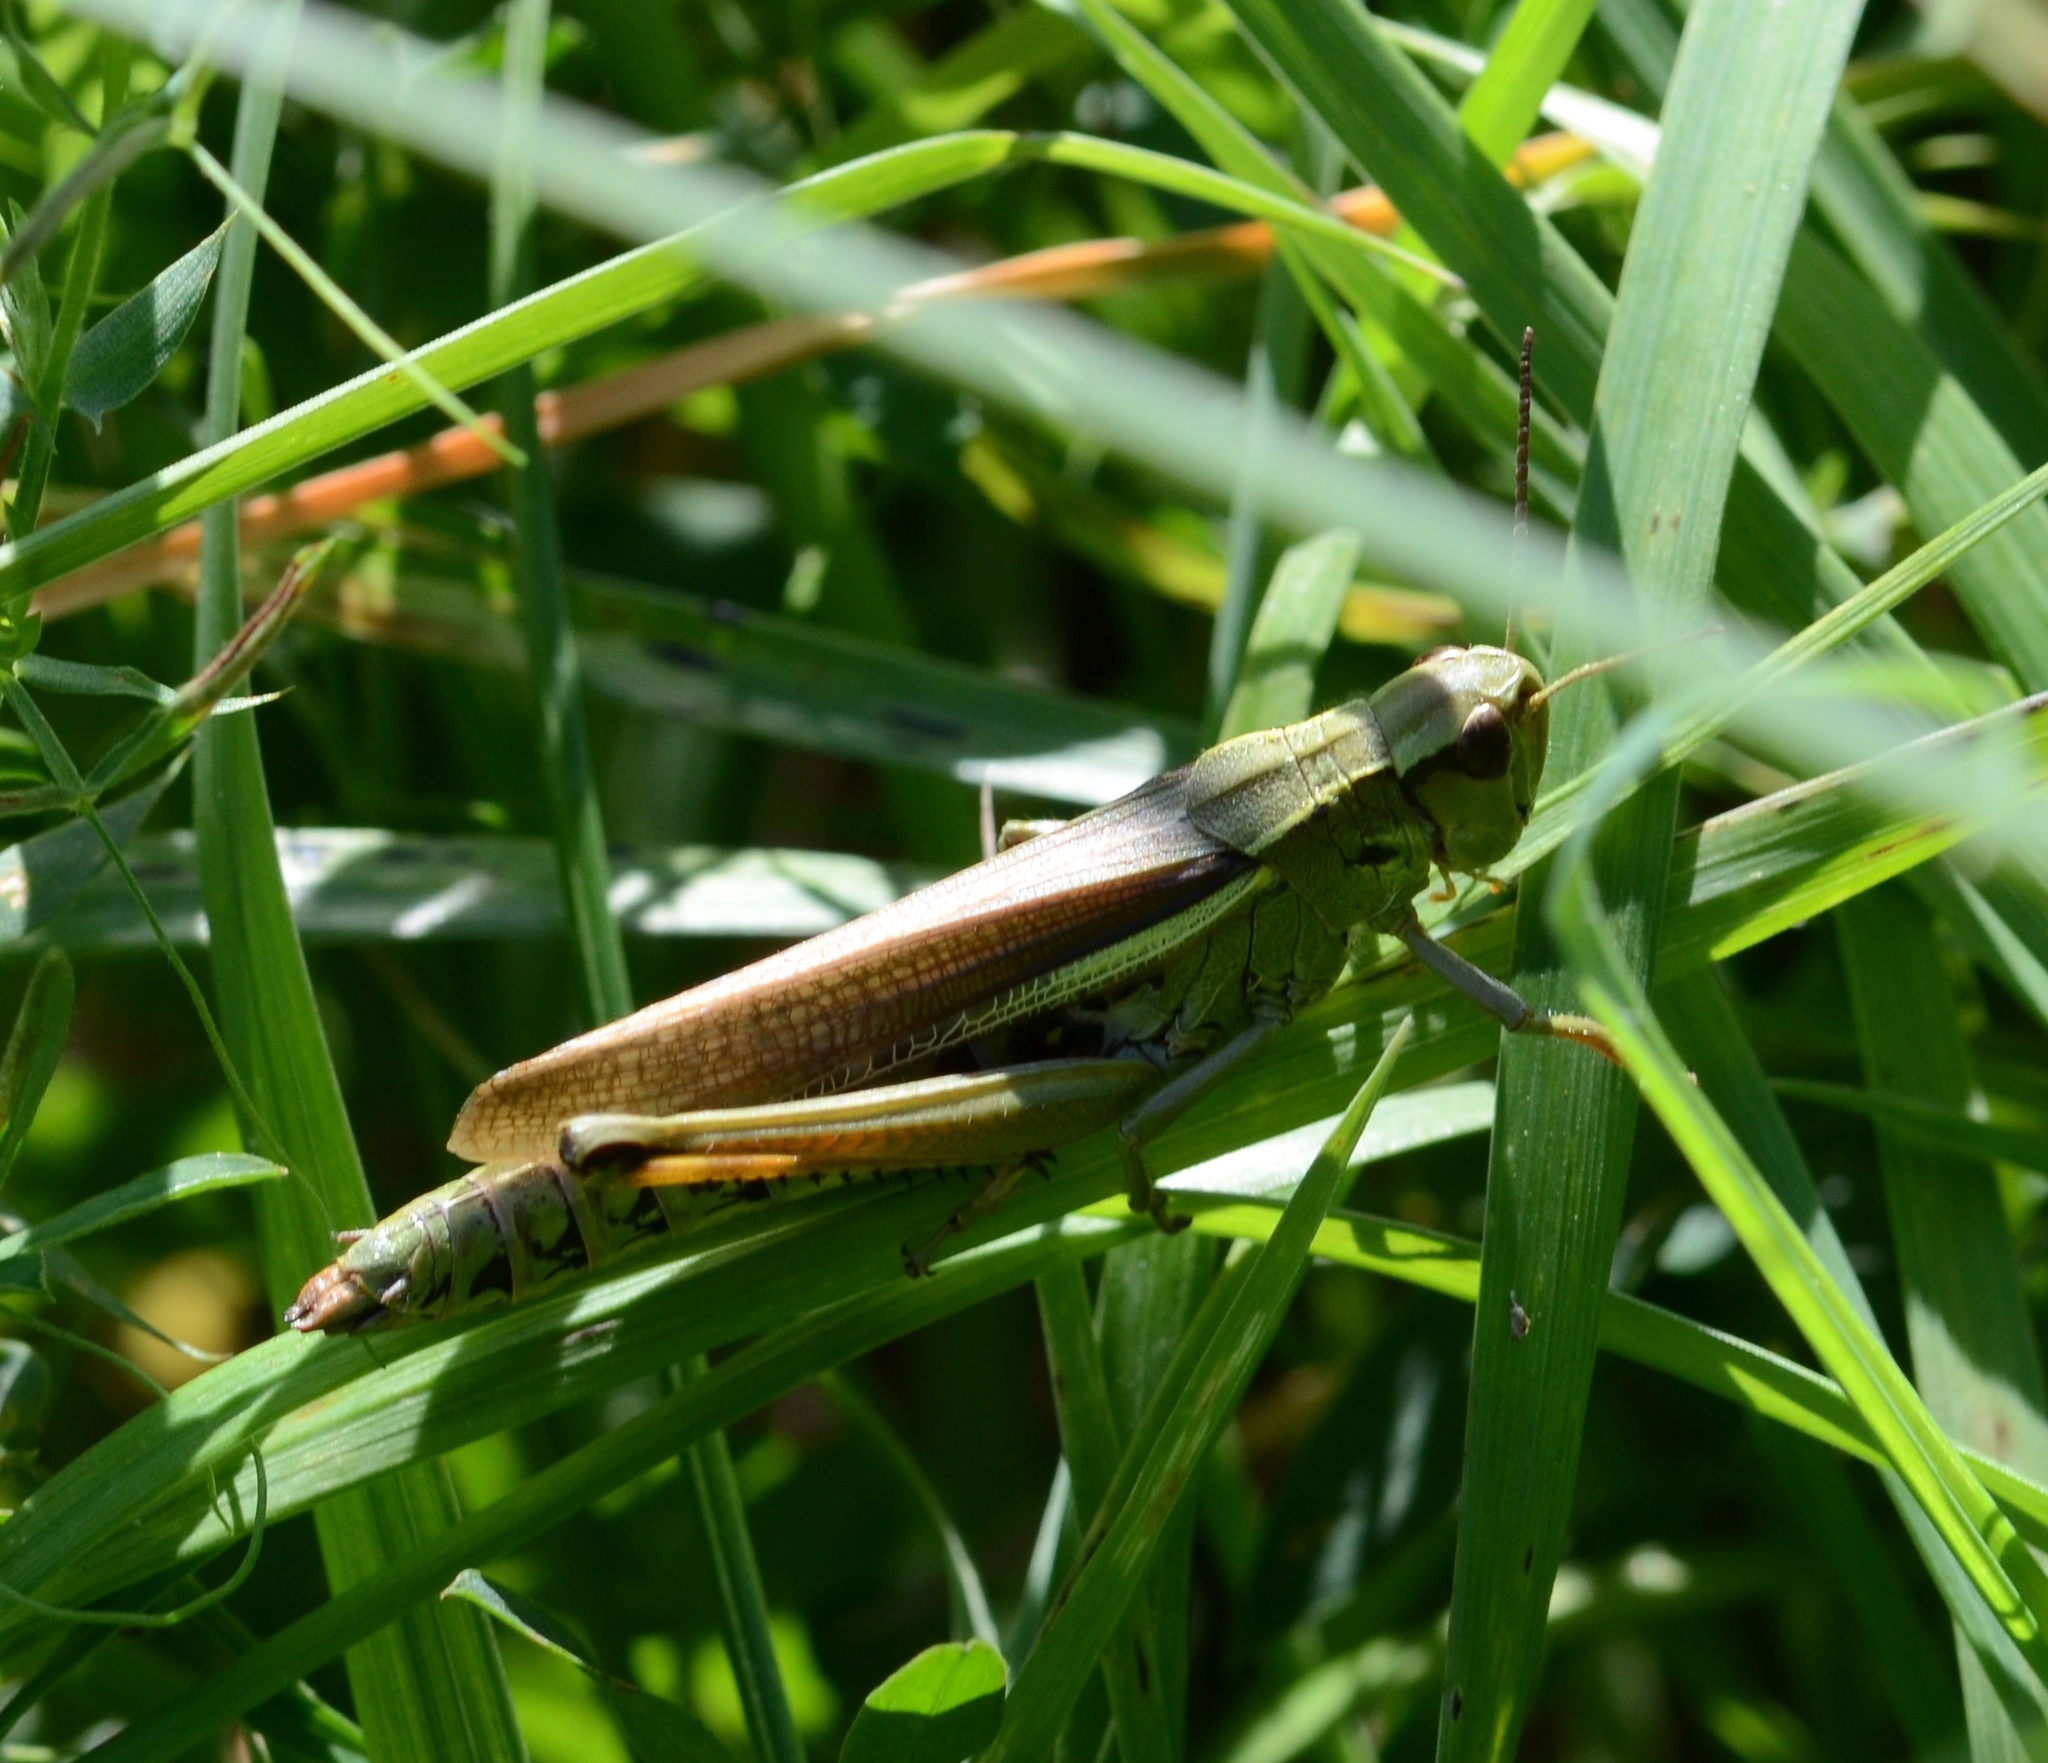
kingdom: Animalia
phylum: Arthropoda
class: Insecta
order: Orthoptera
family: Acrididae
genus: Stethophyma
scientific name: Stethophyma grossum
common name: Large marsh grasshopper
